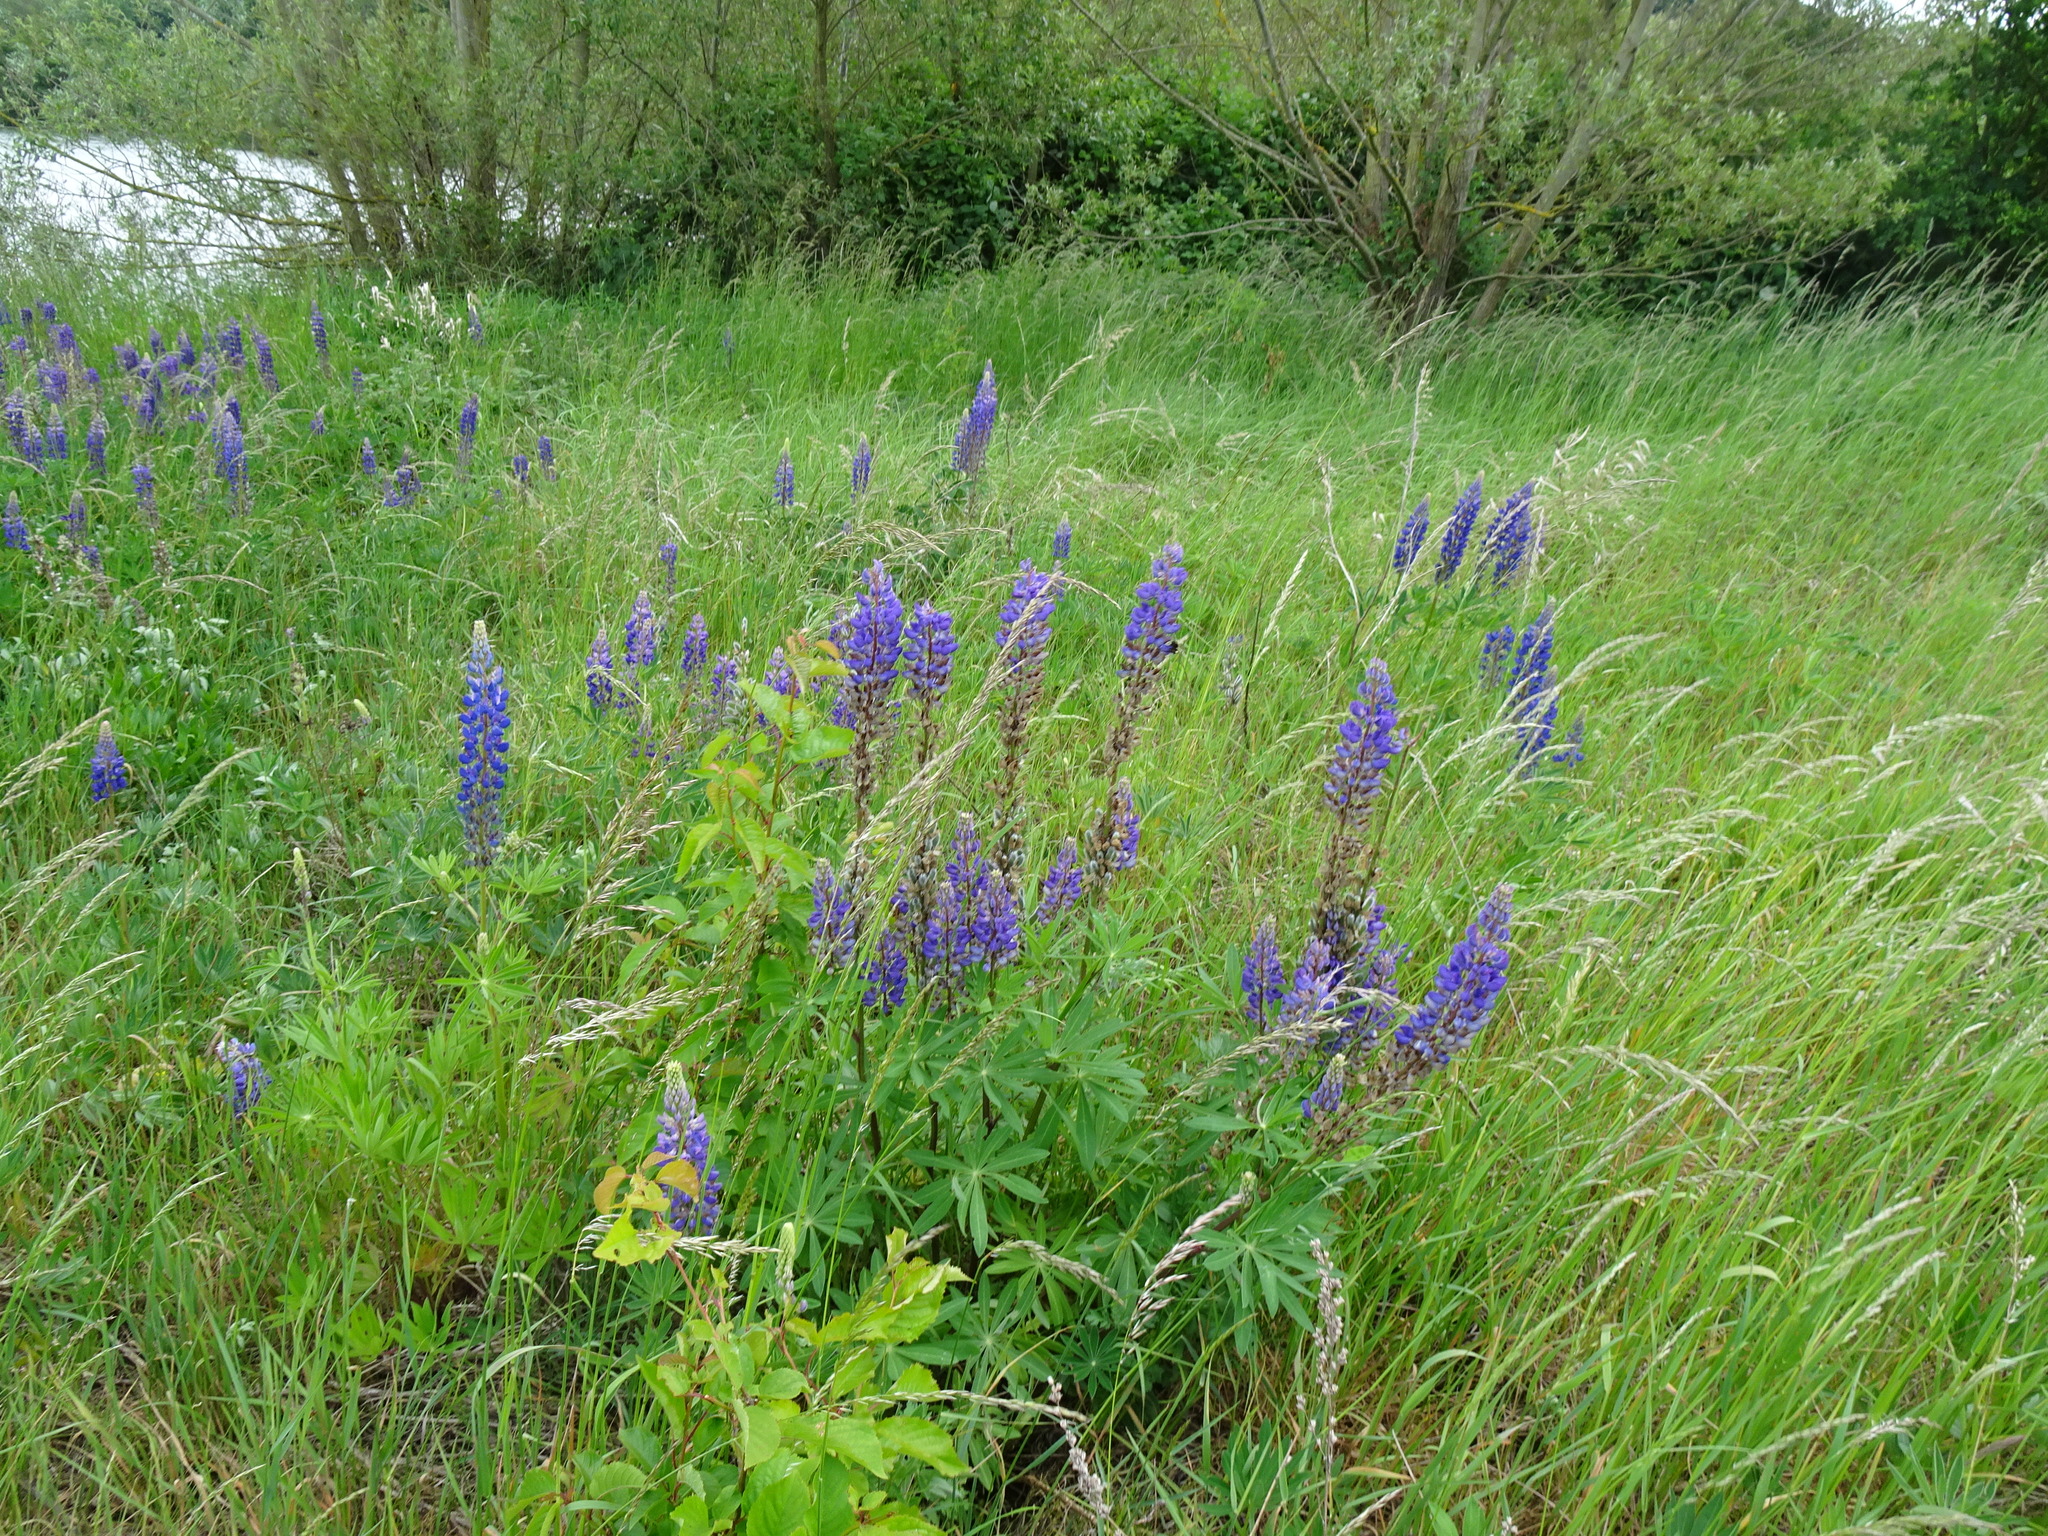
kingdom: Plantae
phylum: Tracheophyta
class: Magnoliopsida
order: Fabales
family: Fabaceae
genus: Lupinus
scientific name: Lupinus polyphyllus
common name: Garden lupin
